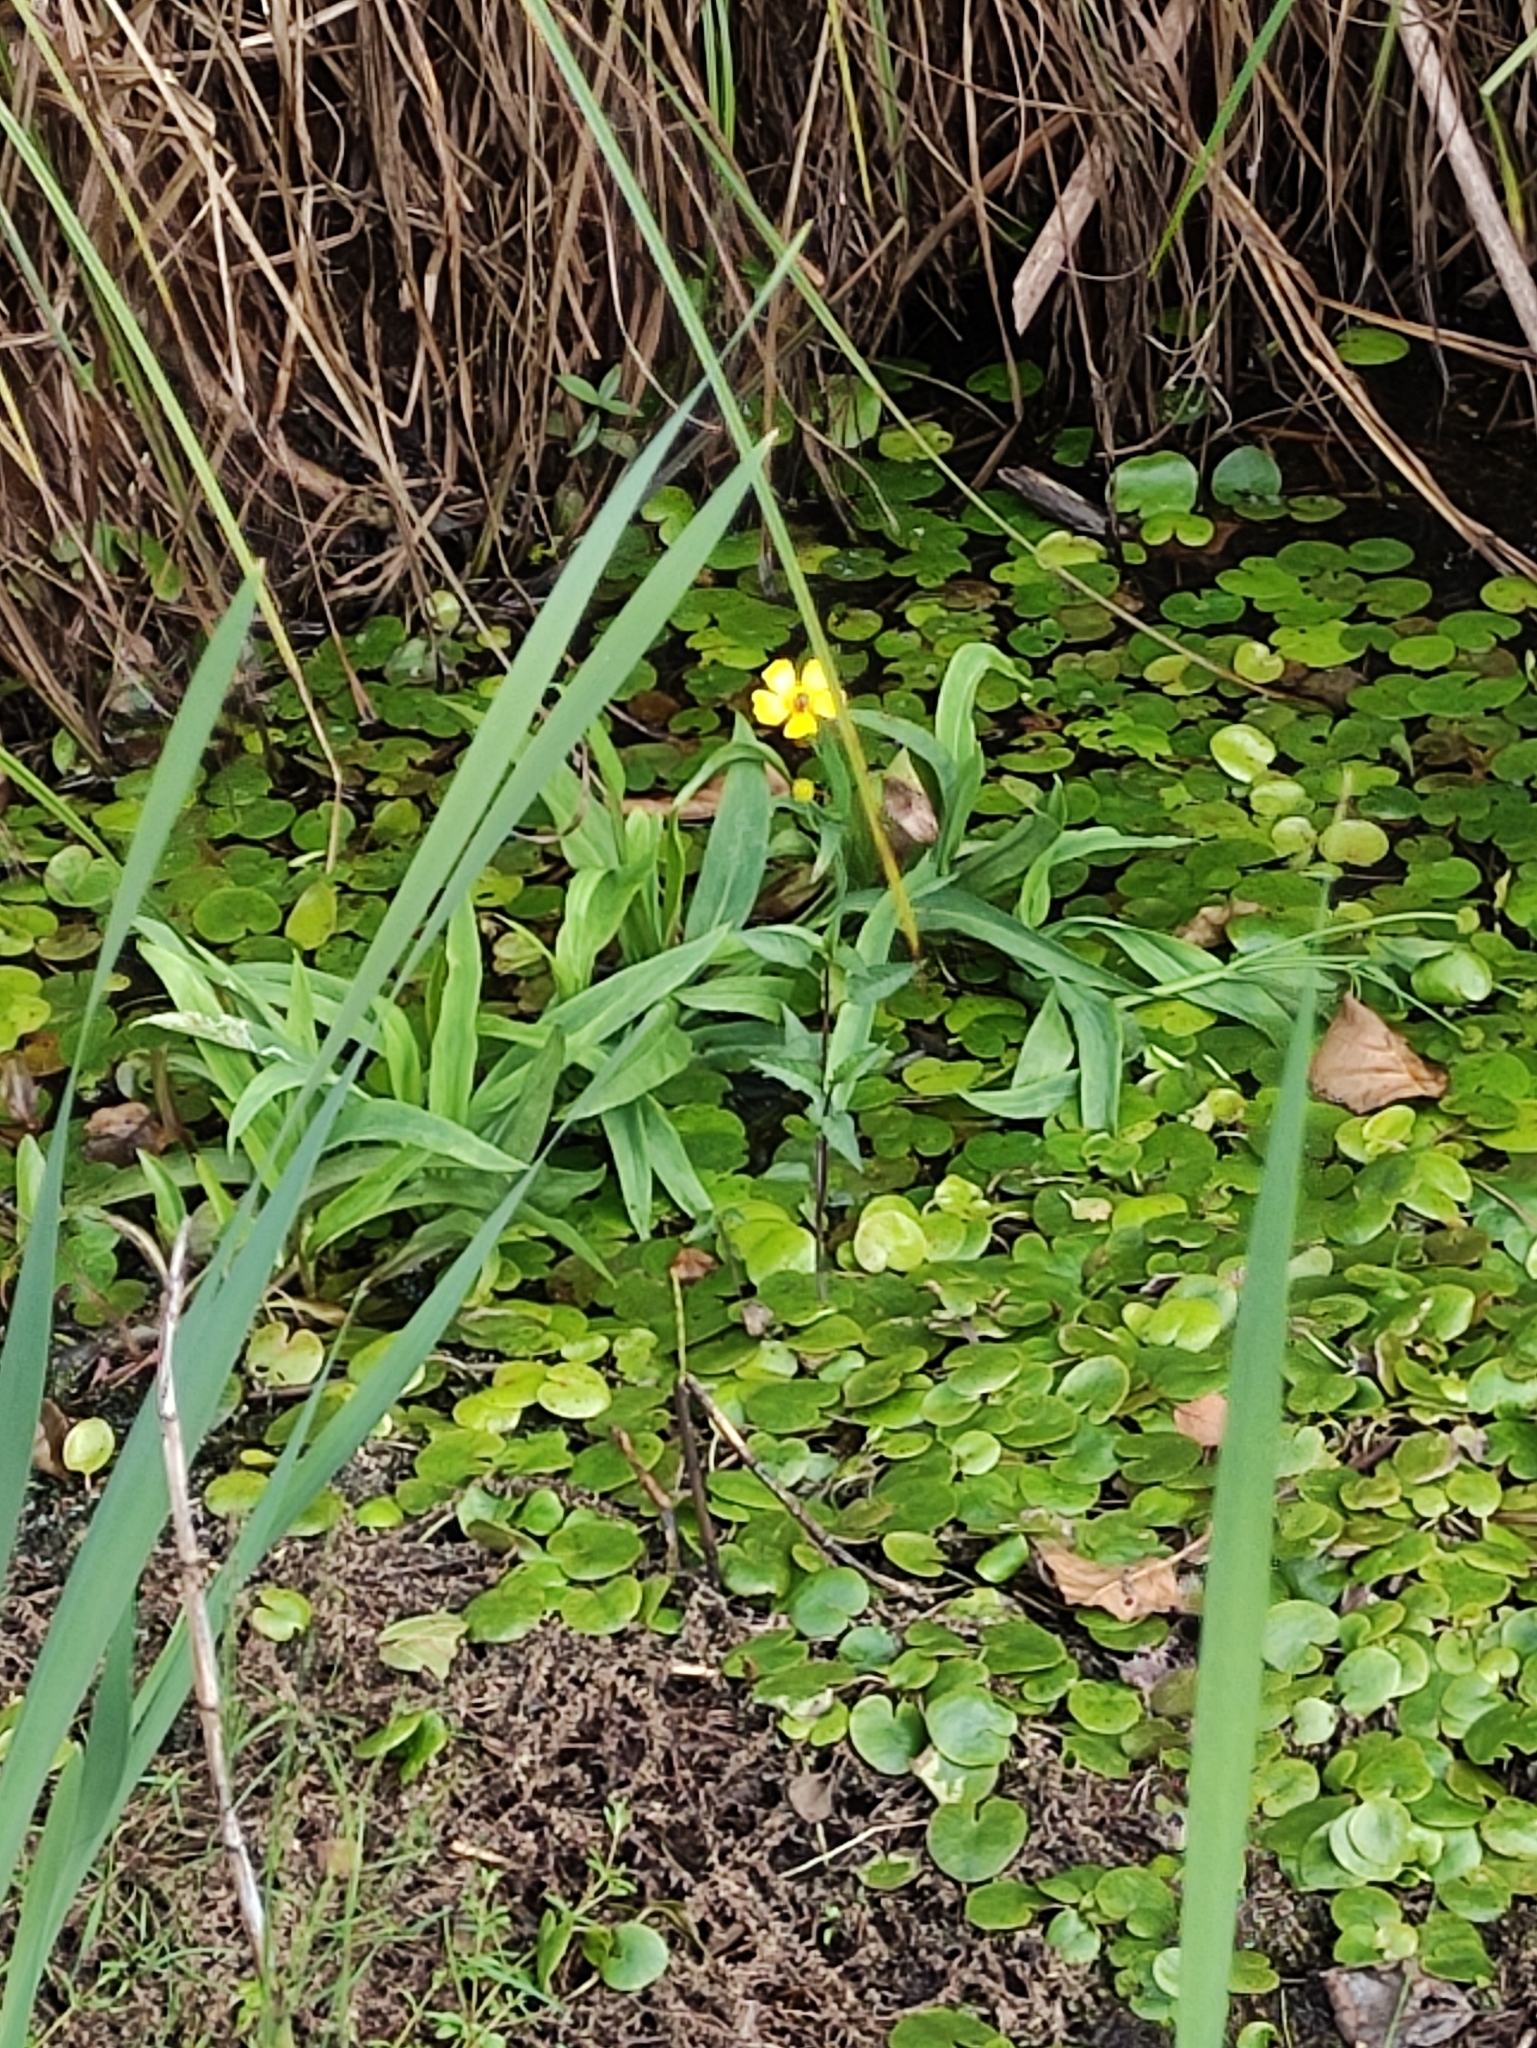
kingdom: Plantae
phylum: Tracheophyta
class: Magnoliopsida
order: Ranunculales
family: Ranunculaceae
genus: Ranunculus
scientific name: Ranunculus lingua
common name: Greater spearwort
